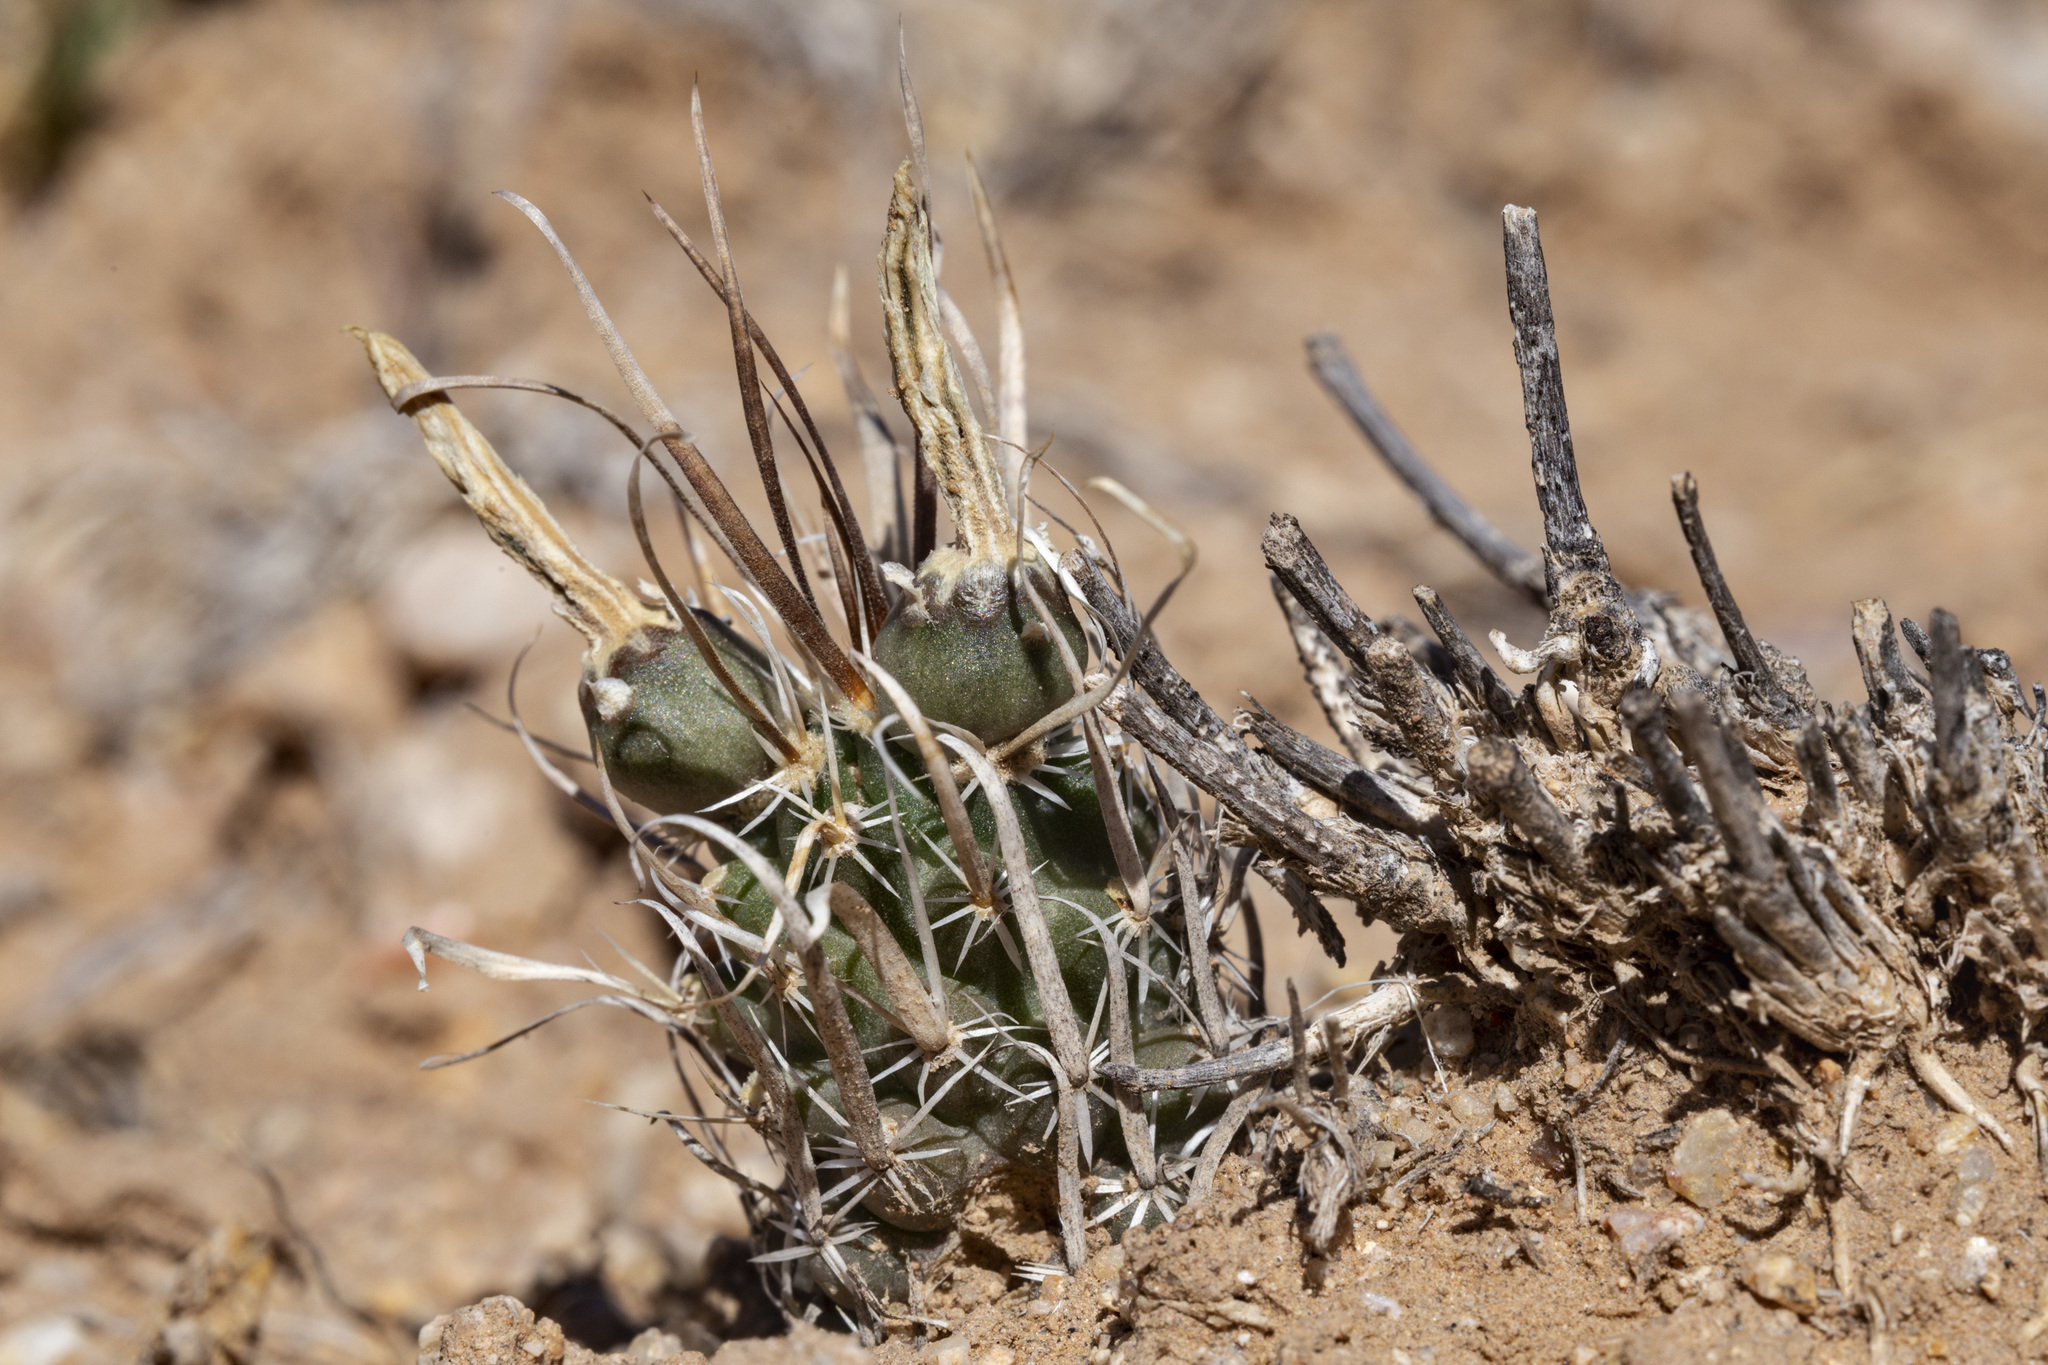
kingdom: Plantae
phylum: Tracheophyta
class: Magnoliopsida
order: Caryophyllales
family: Cactaceae
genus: Sclerocactus
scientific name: Sclerocactus papyracanthus
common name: Grama grass cactus
